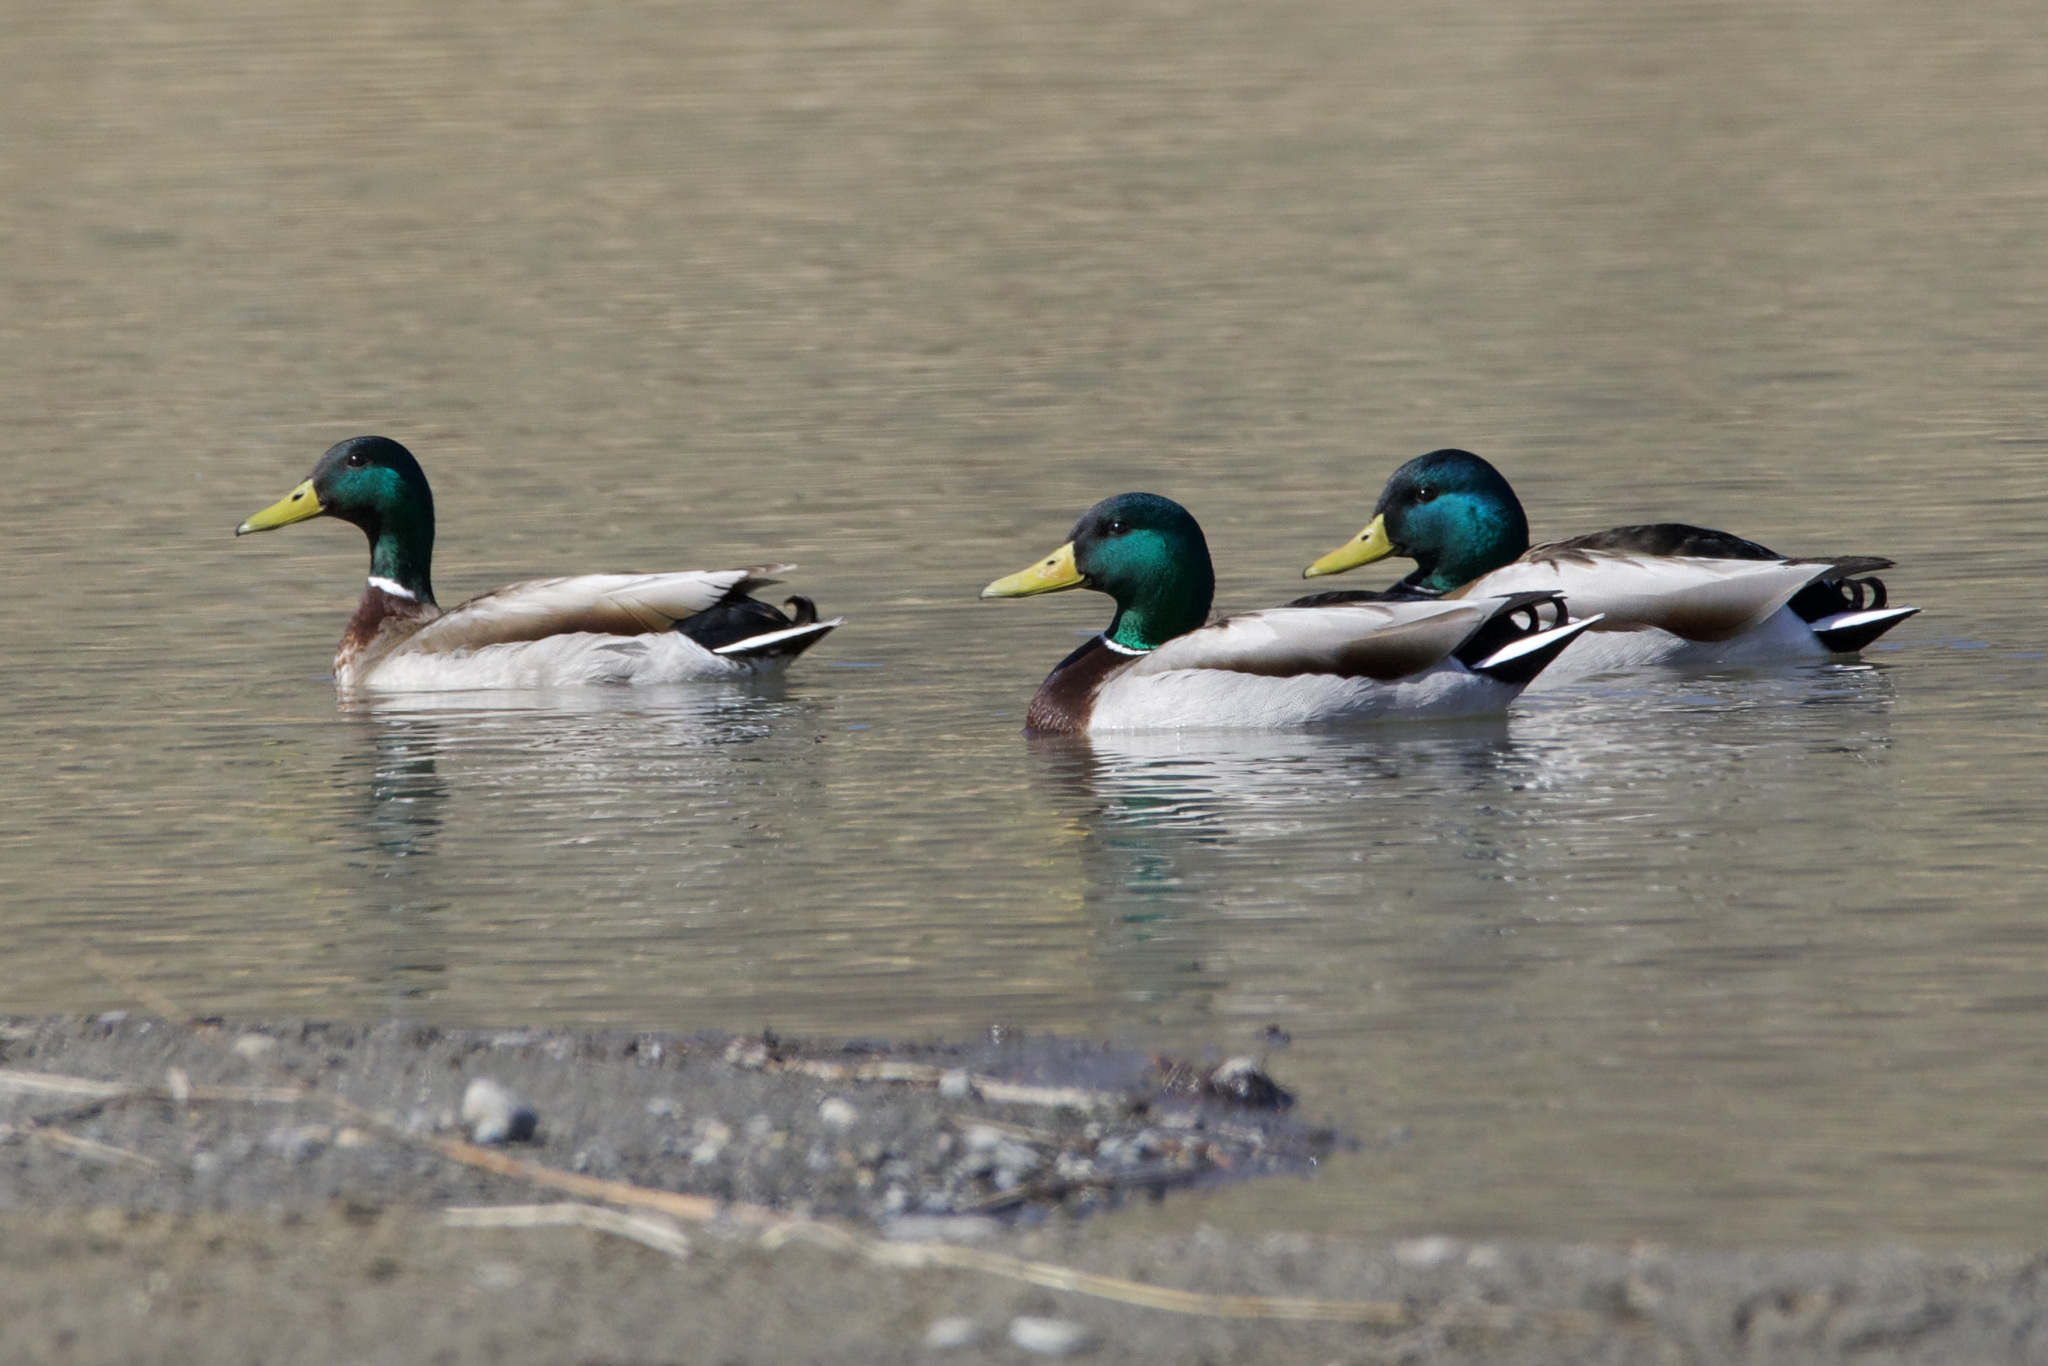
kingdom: Animalia
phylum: Chordata
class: Aves
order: Anseriformes
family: Anatidae
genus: Anas
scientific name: Anas platyrhynchos
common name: Mallard
